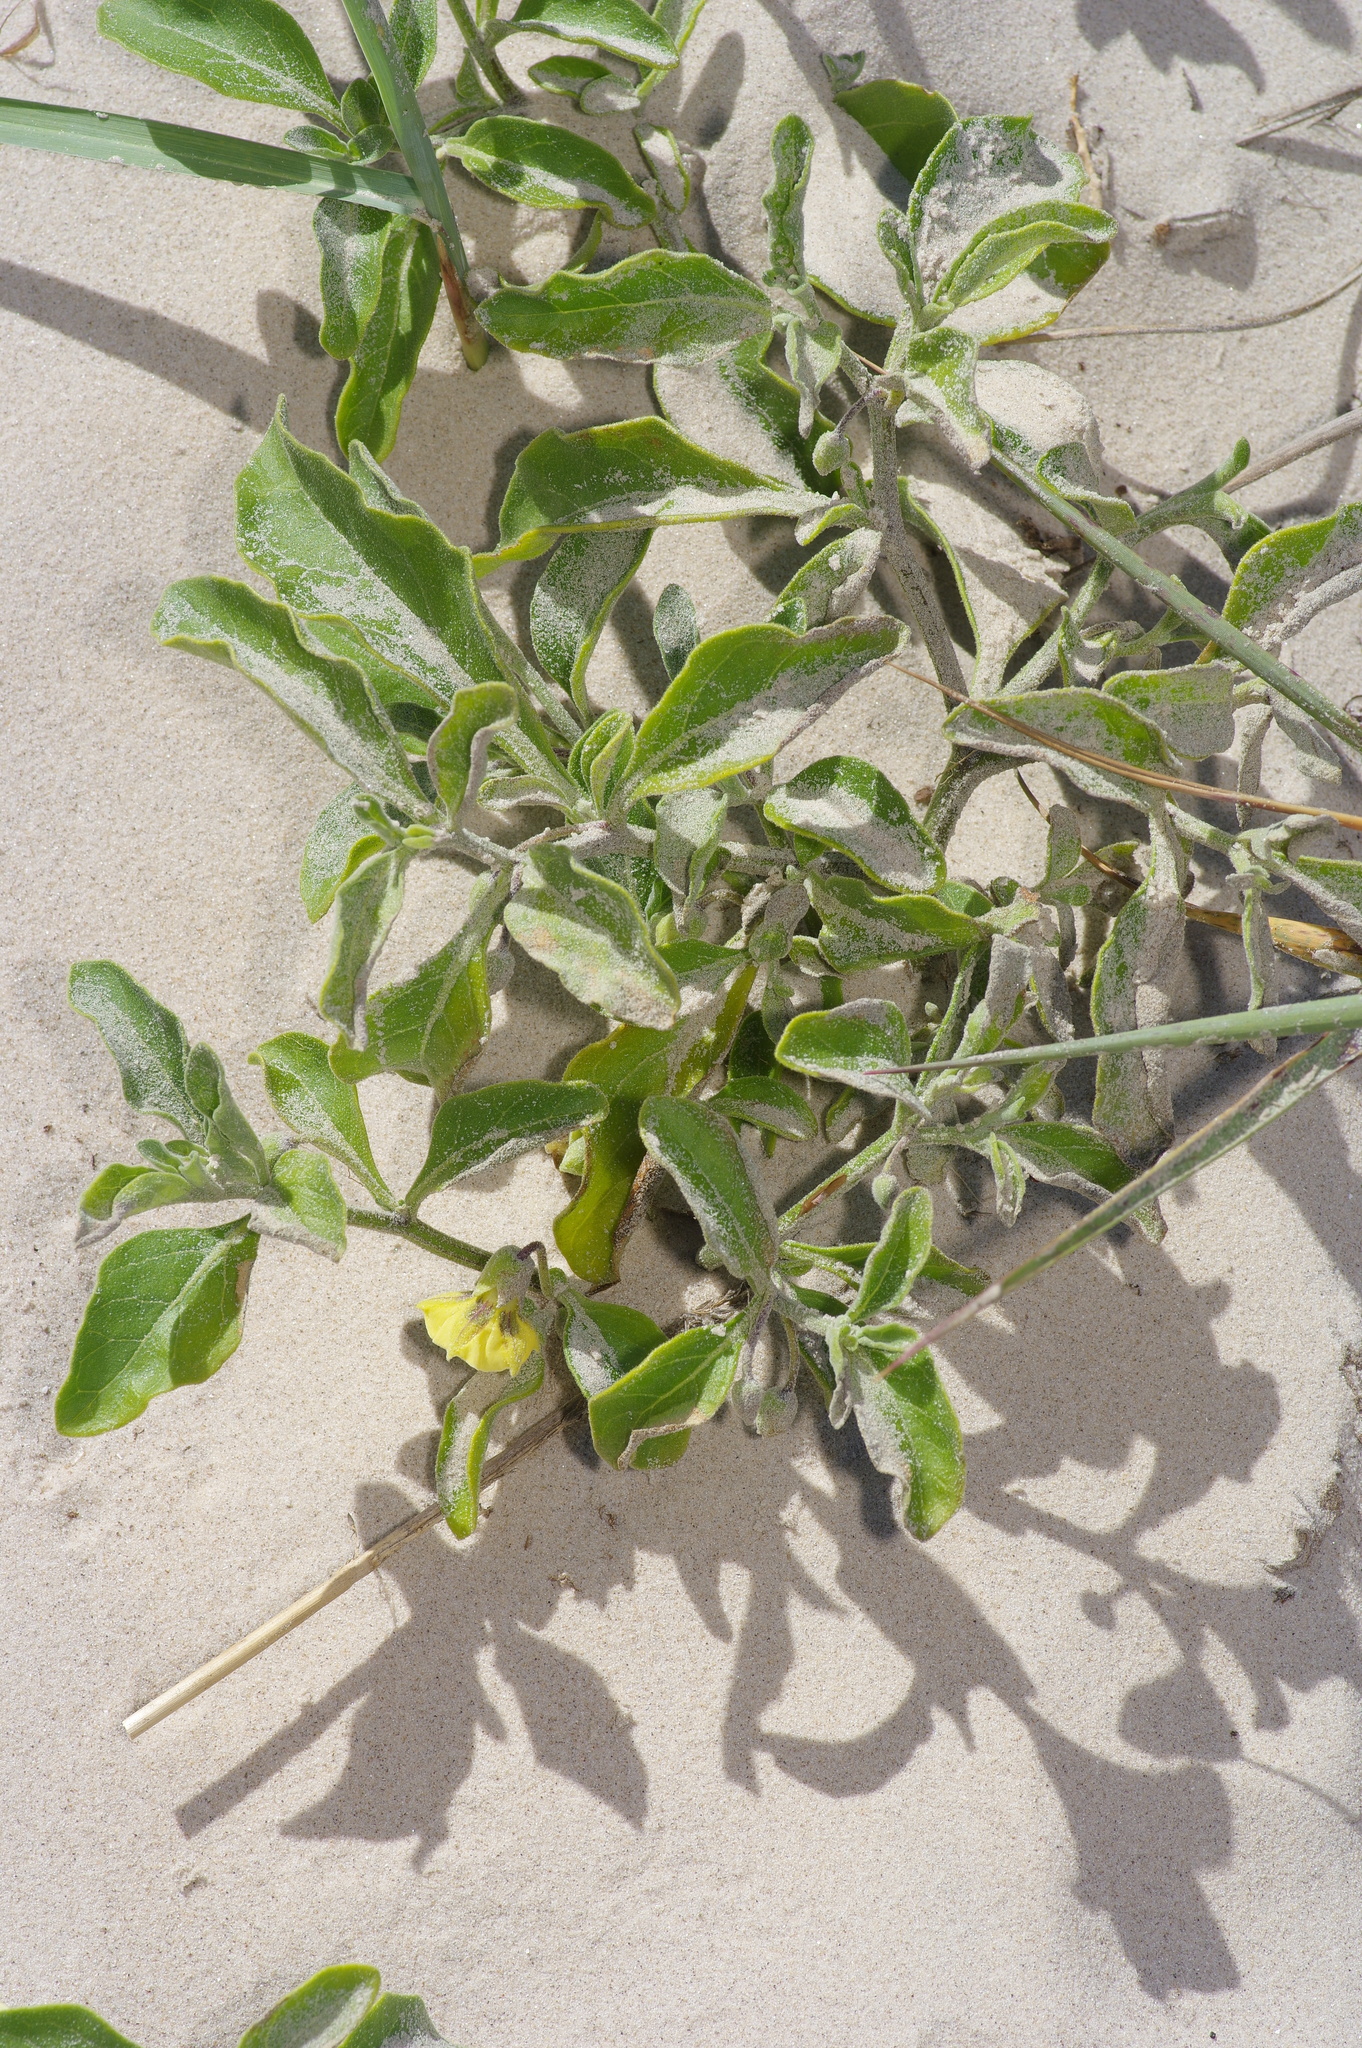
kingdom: Plantae
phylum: Tracheophyta
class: Magnoliopsida
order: Solanales
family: Solanaceae
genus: Physalis
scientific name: Physalis cinerascens
